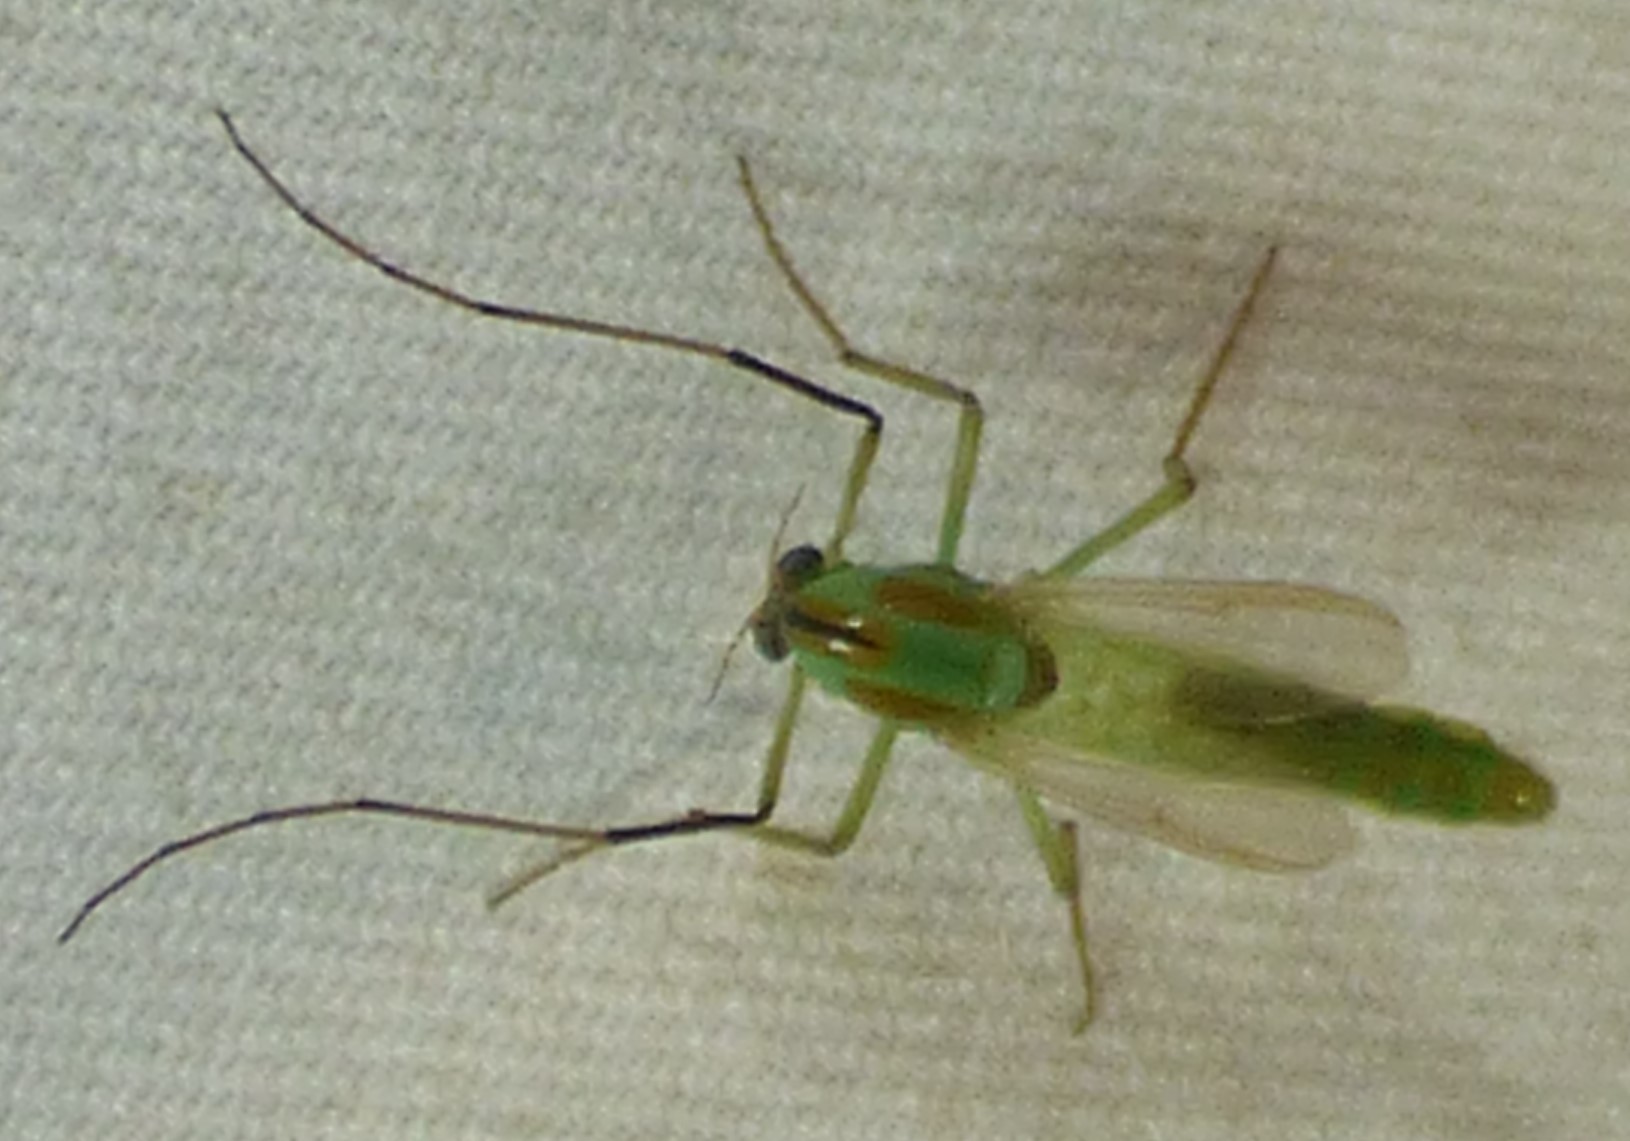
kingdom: Animalia
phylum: Arthropoda
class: Insecta
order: Diptera
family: Chironomidae
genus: Axarus
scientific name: Axarus
